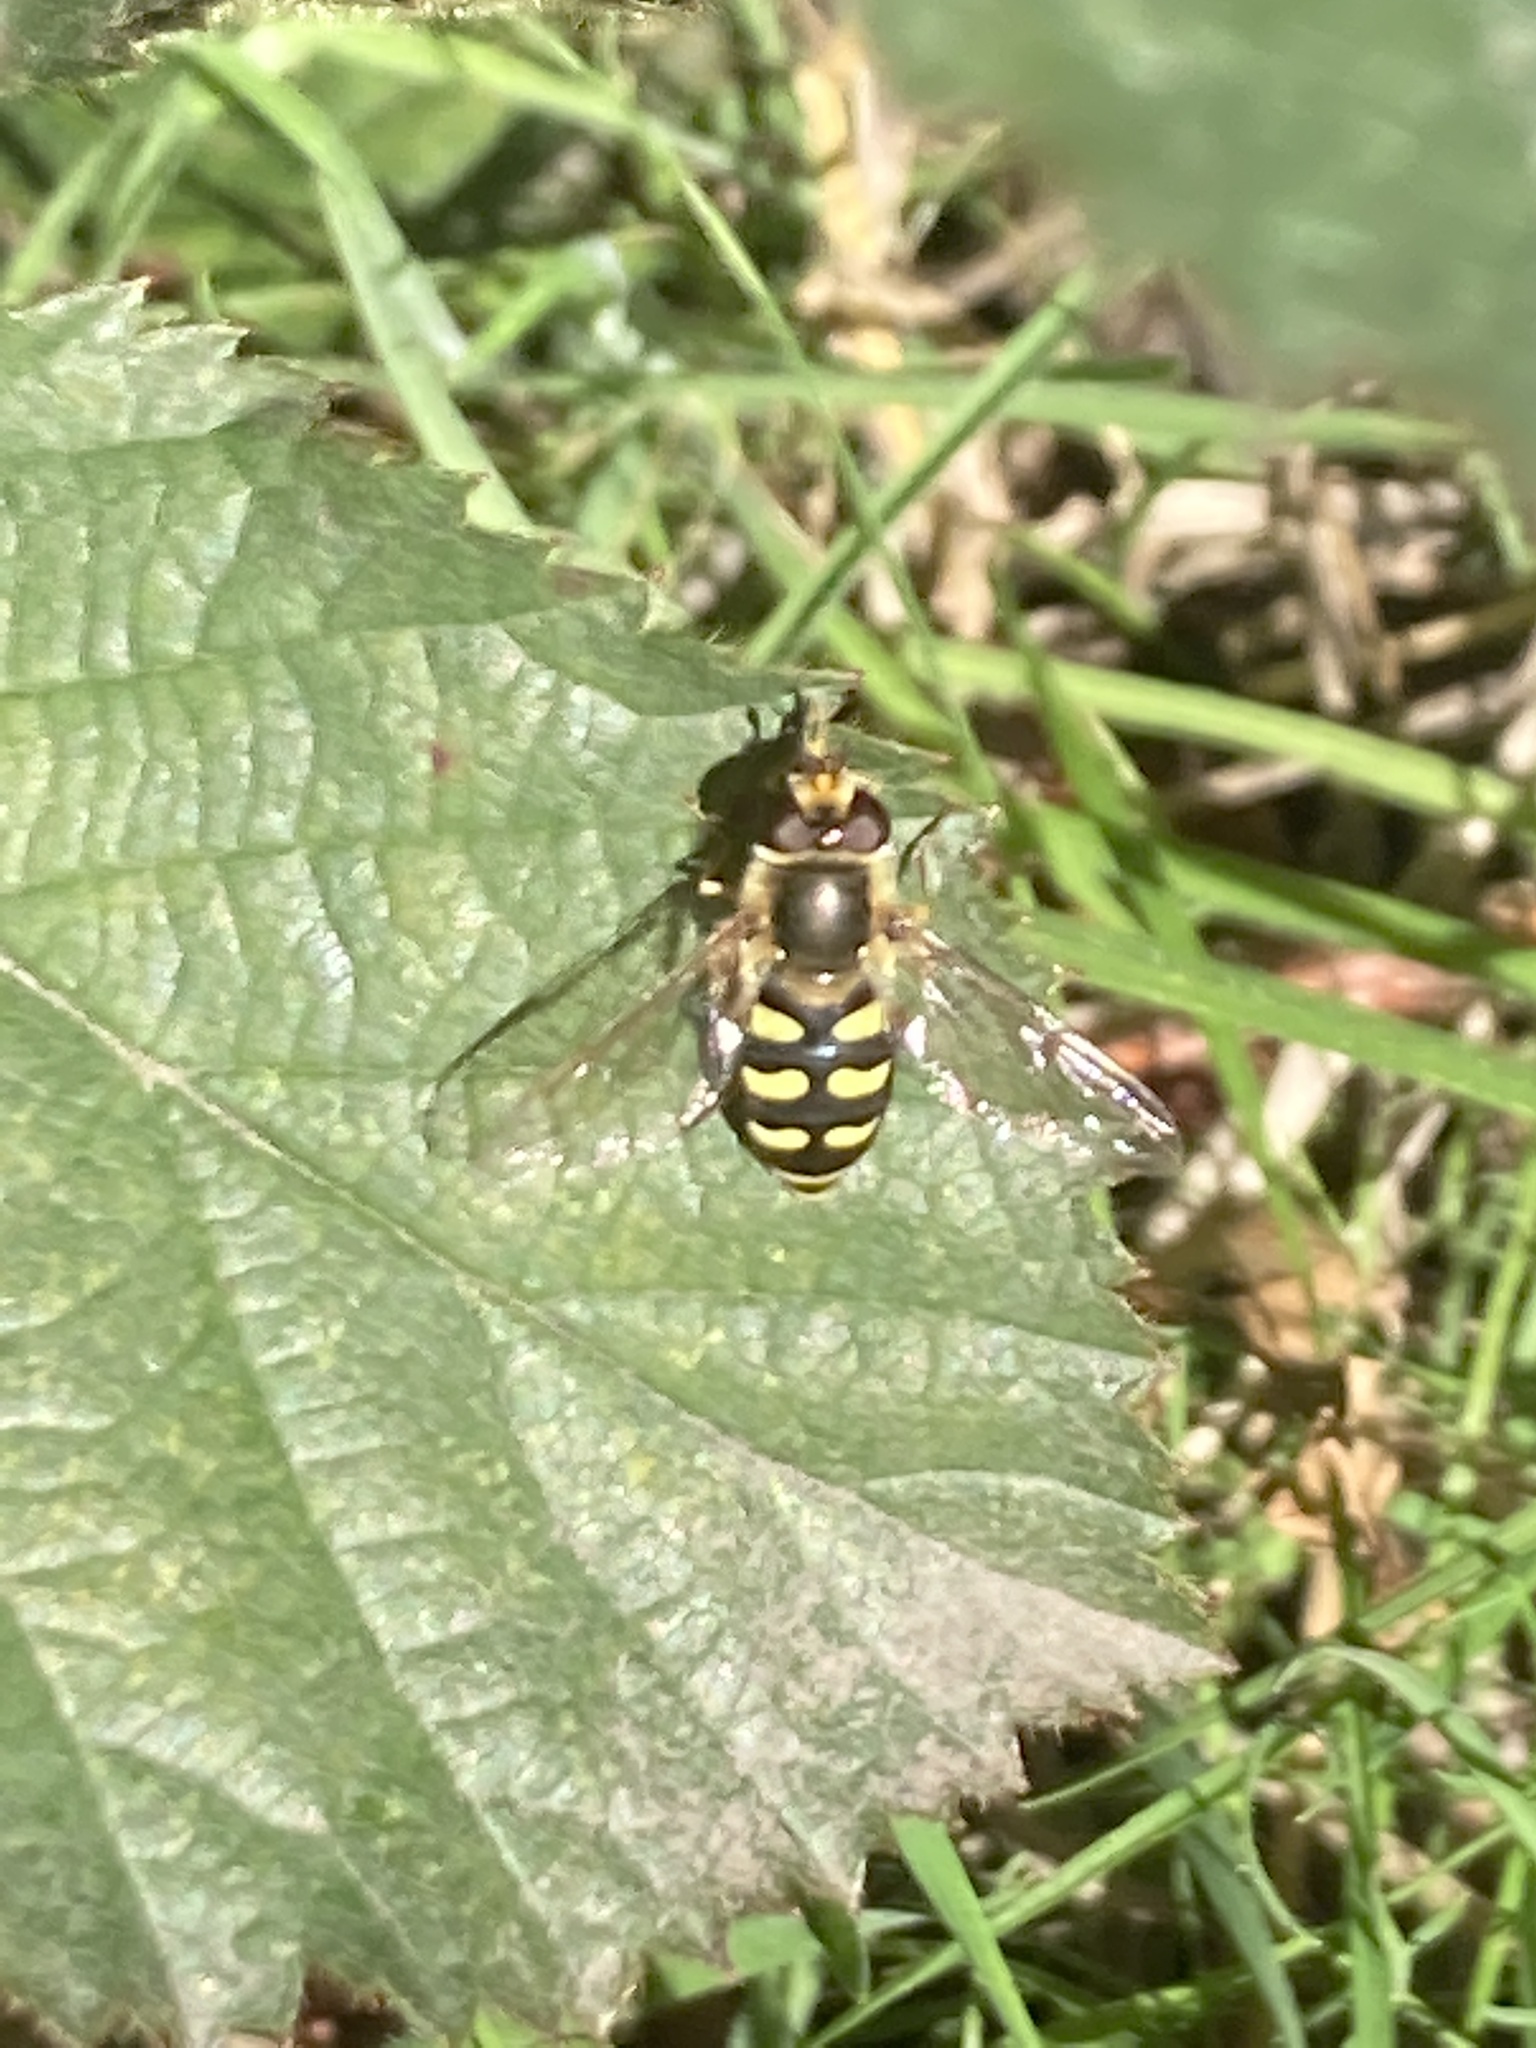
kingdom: Animalia
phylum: Arthropoda
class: Insecta
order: Diptera
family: Syrphidae
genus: Eupeodes
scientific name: Eupeodes luniger
